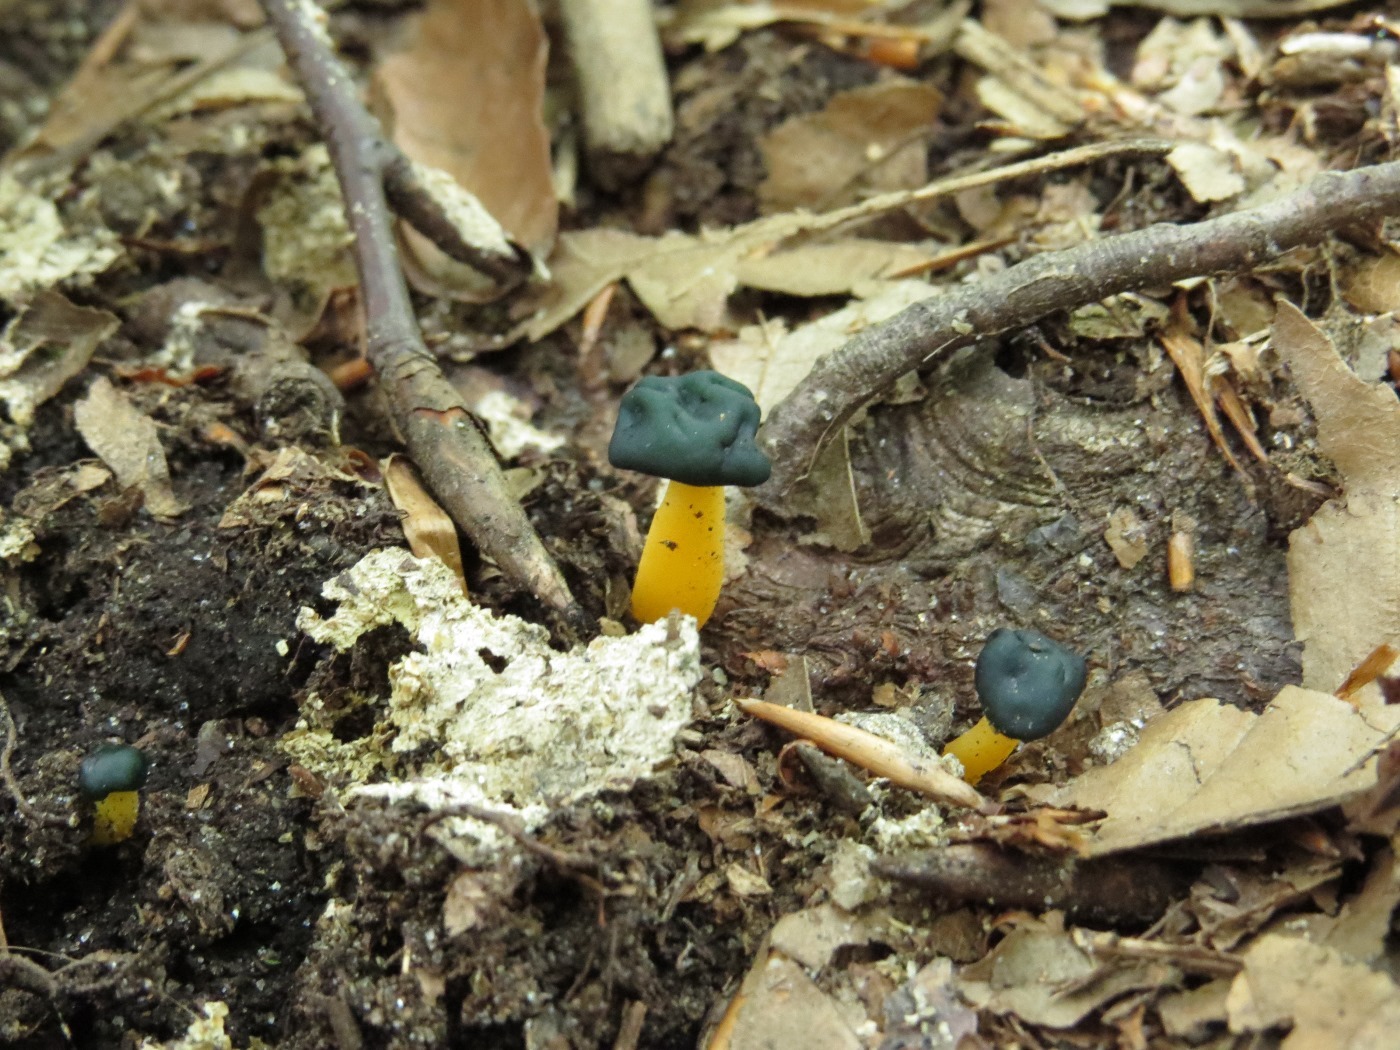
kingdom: Fungi
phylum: Ascomycota
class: Leotiomycetes
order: Leotiales
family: Leotiaceae
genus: Leotia
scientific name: Leotia lubrica
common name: Jellybaby
